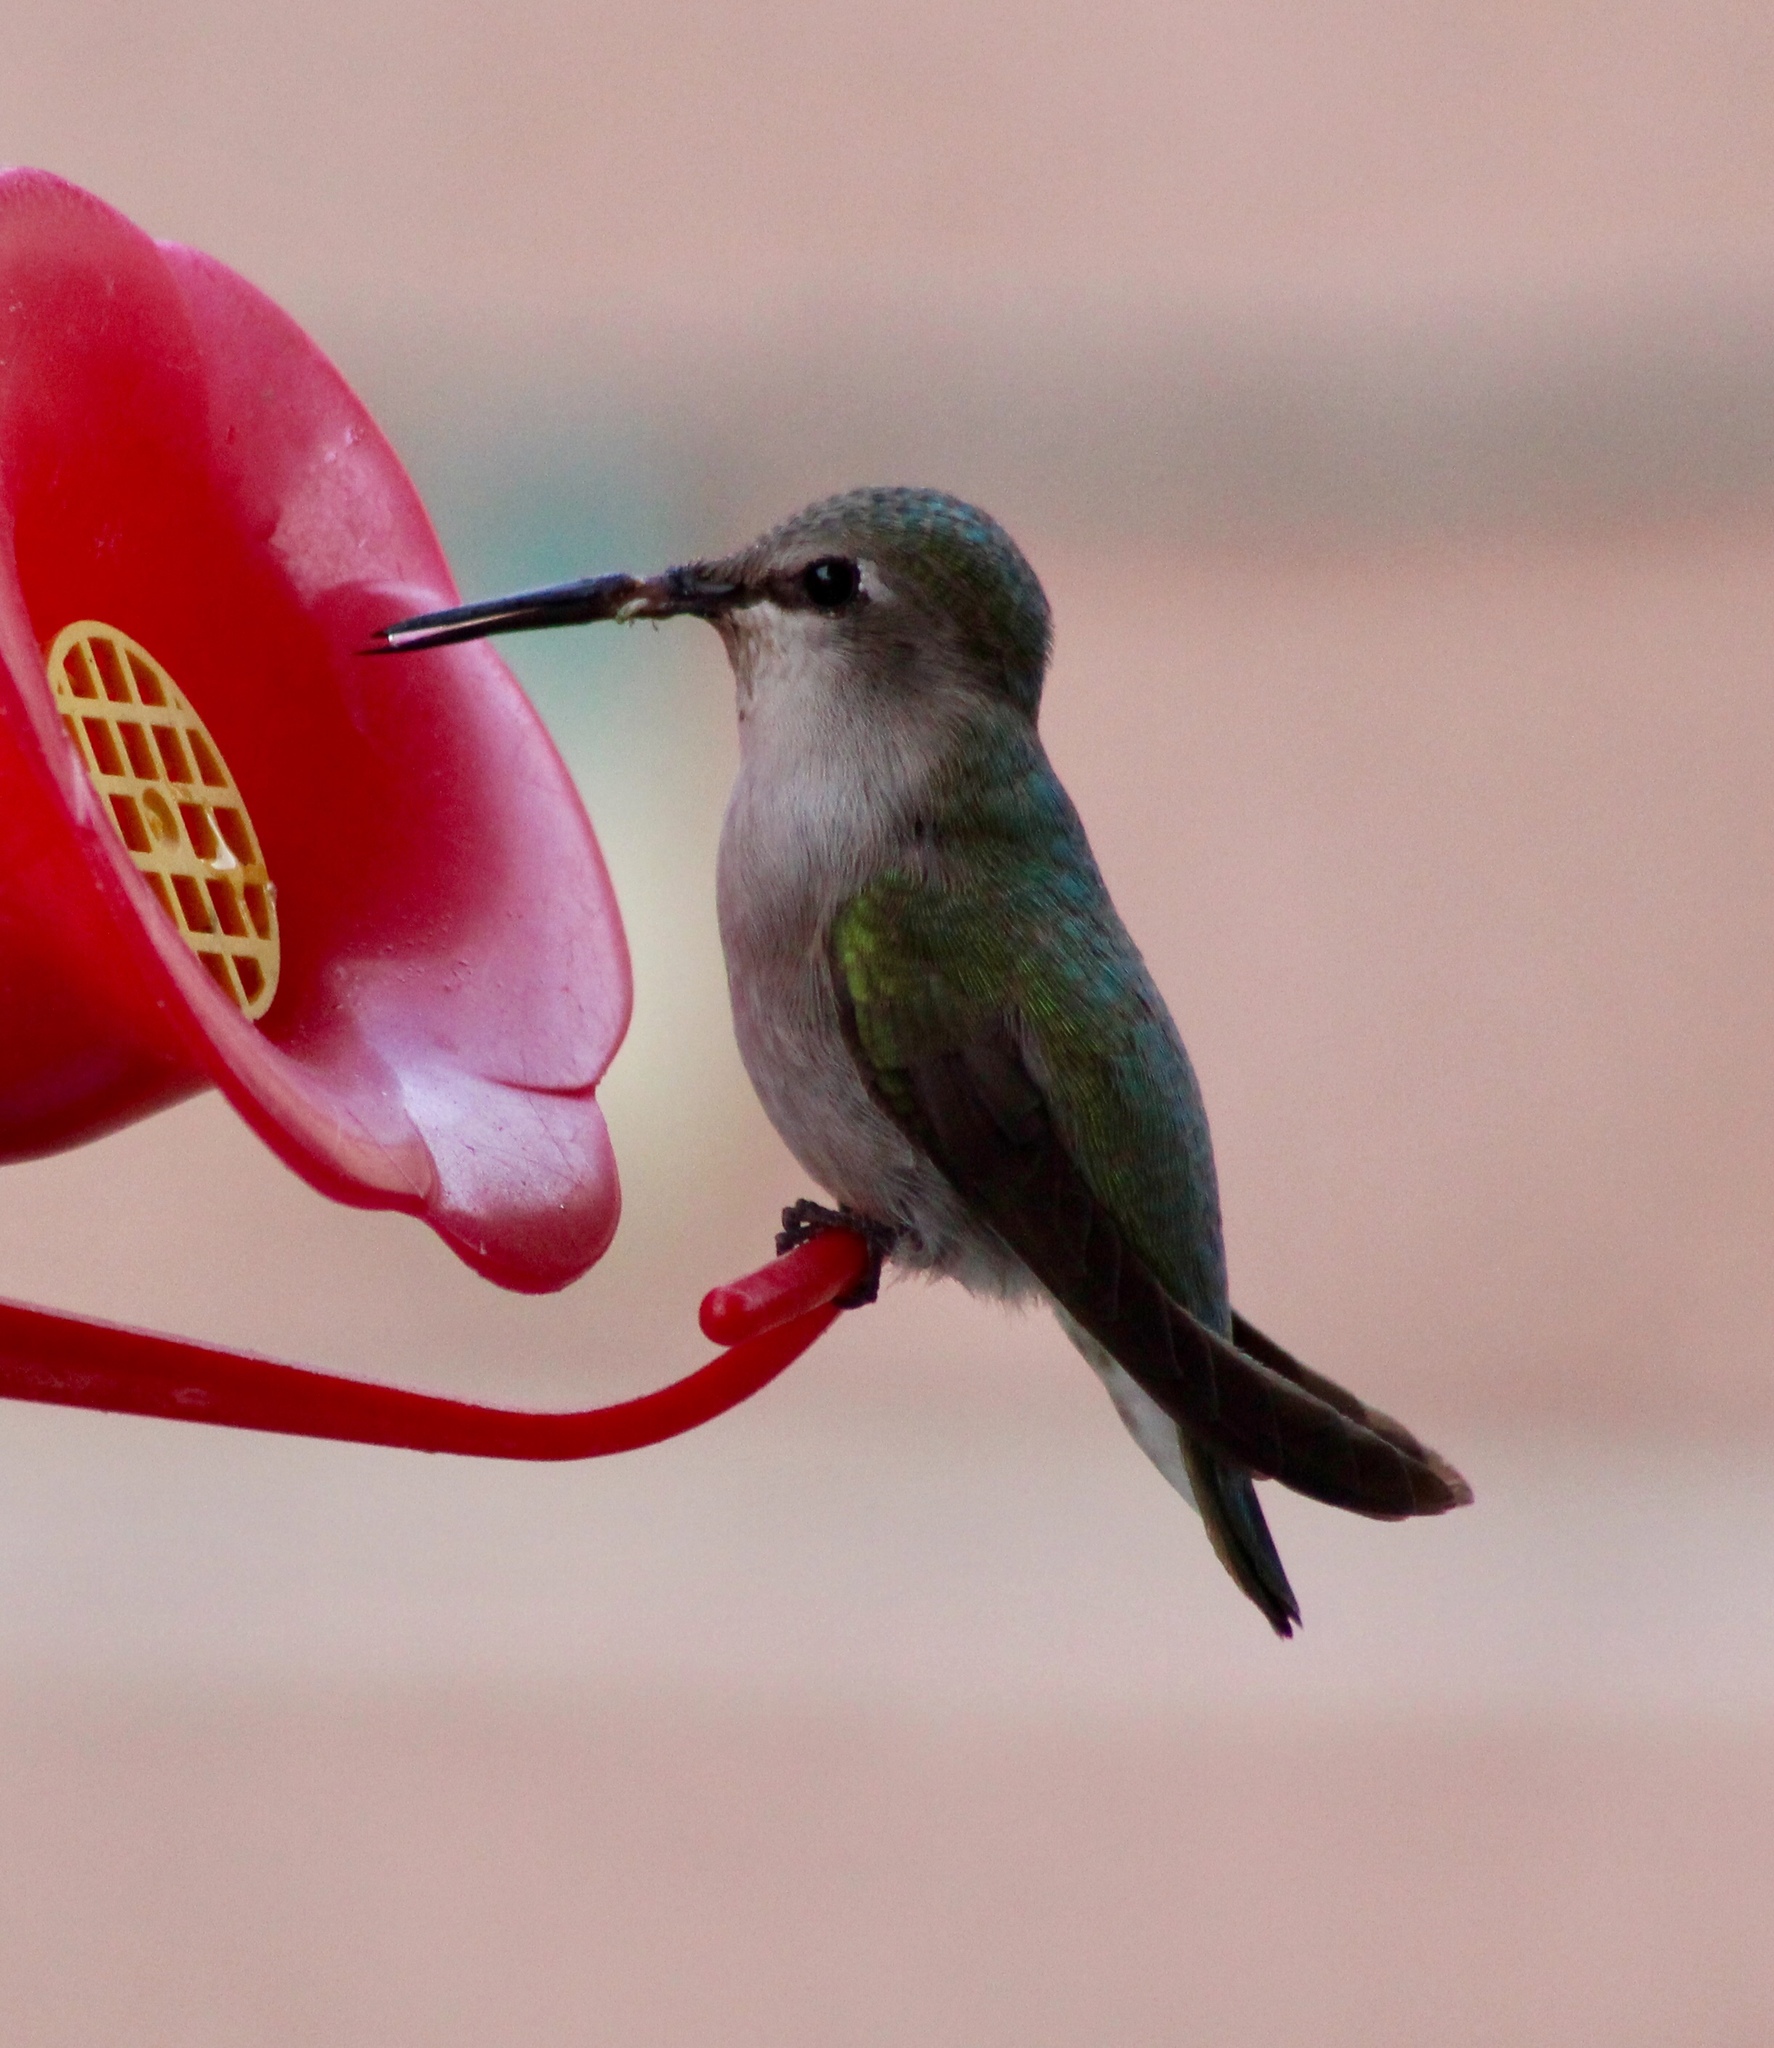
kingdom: Animalia
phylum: Chordata
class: Aves
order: Apodiformes
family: Trochilidae
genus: Calypte
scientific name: Calypte costae
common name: Costa's hummingbird
